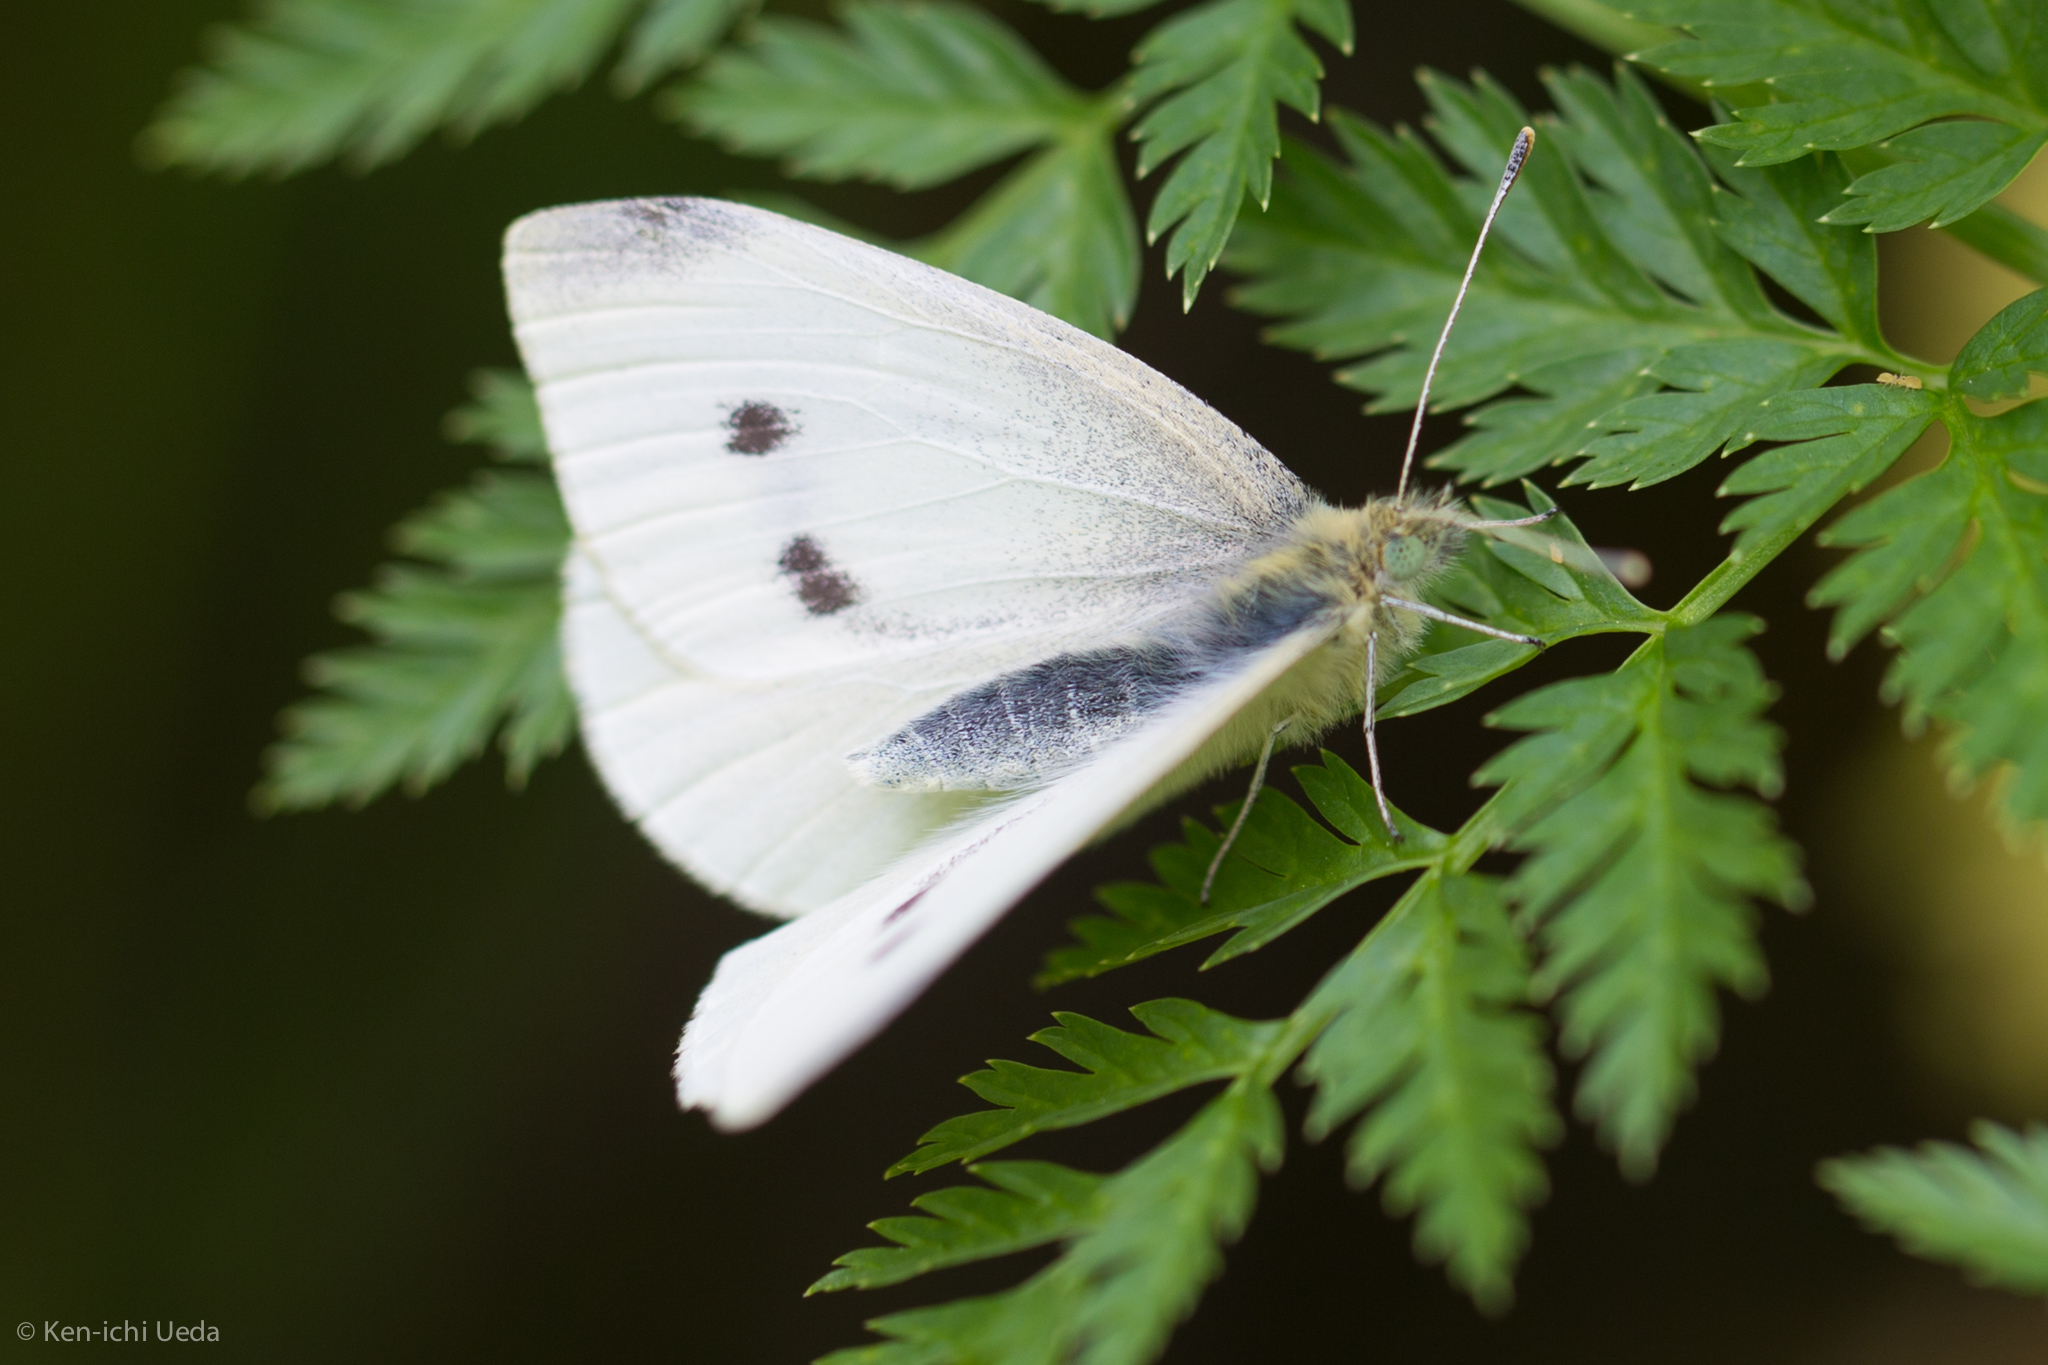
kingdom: Animalia
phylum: Arthropoda
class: Insecta
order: Lepidoptera
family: Pieridae
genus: Pieris
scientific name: Pieris rapae
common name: Small white
